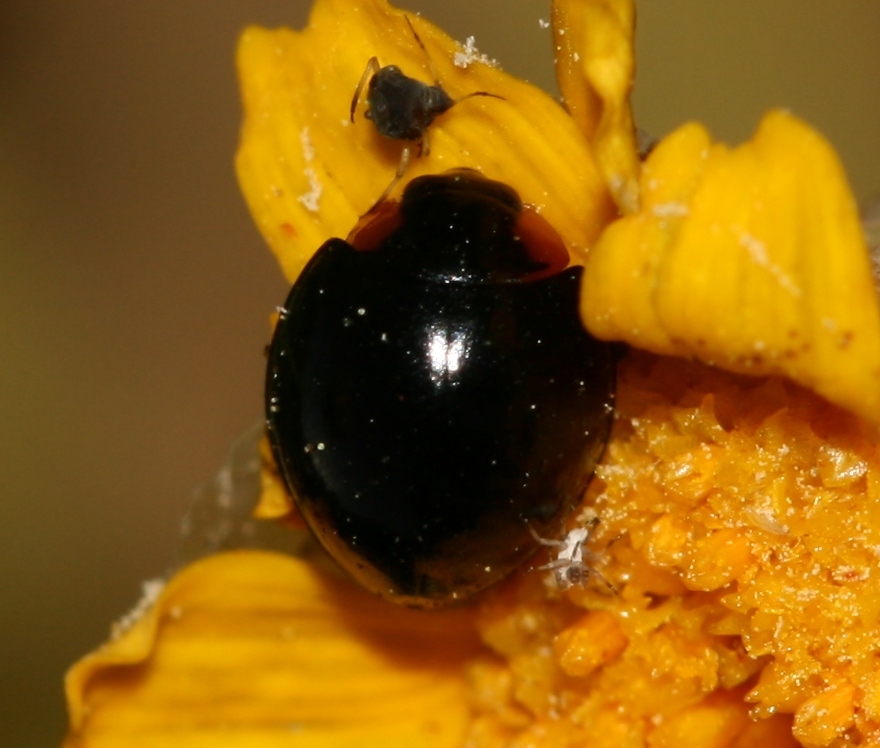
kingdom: Animalia
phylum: Arthropoda
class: Insecta
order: Coleoptera
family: Coccinellidae
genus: Parexochomus
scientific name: Parexochomus nigromaculatus
